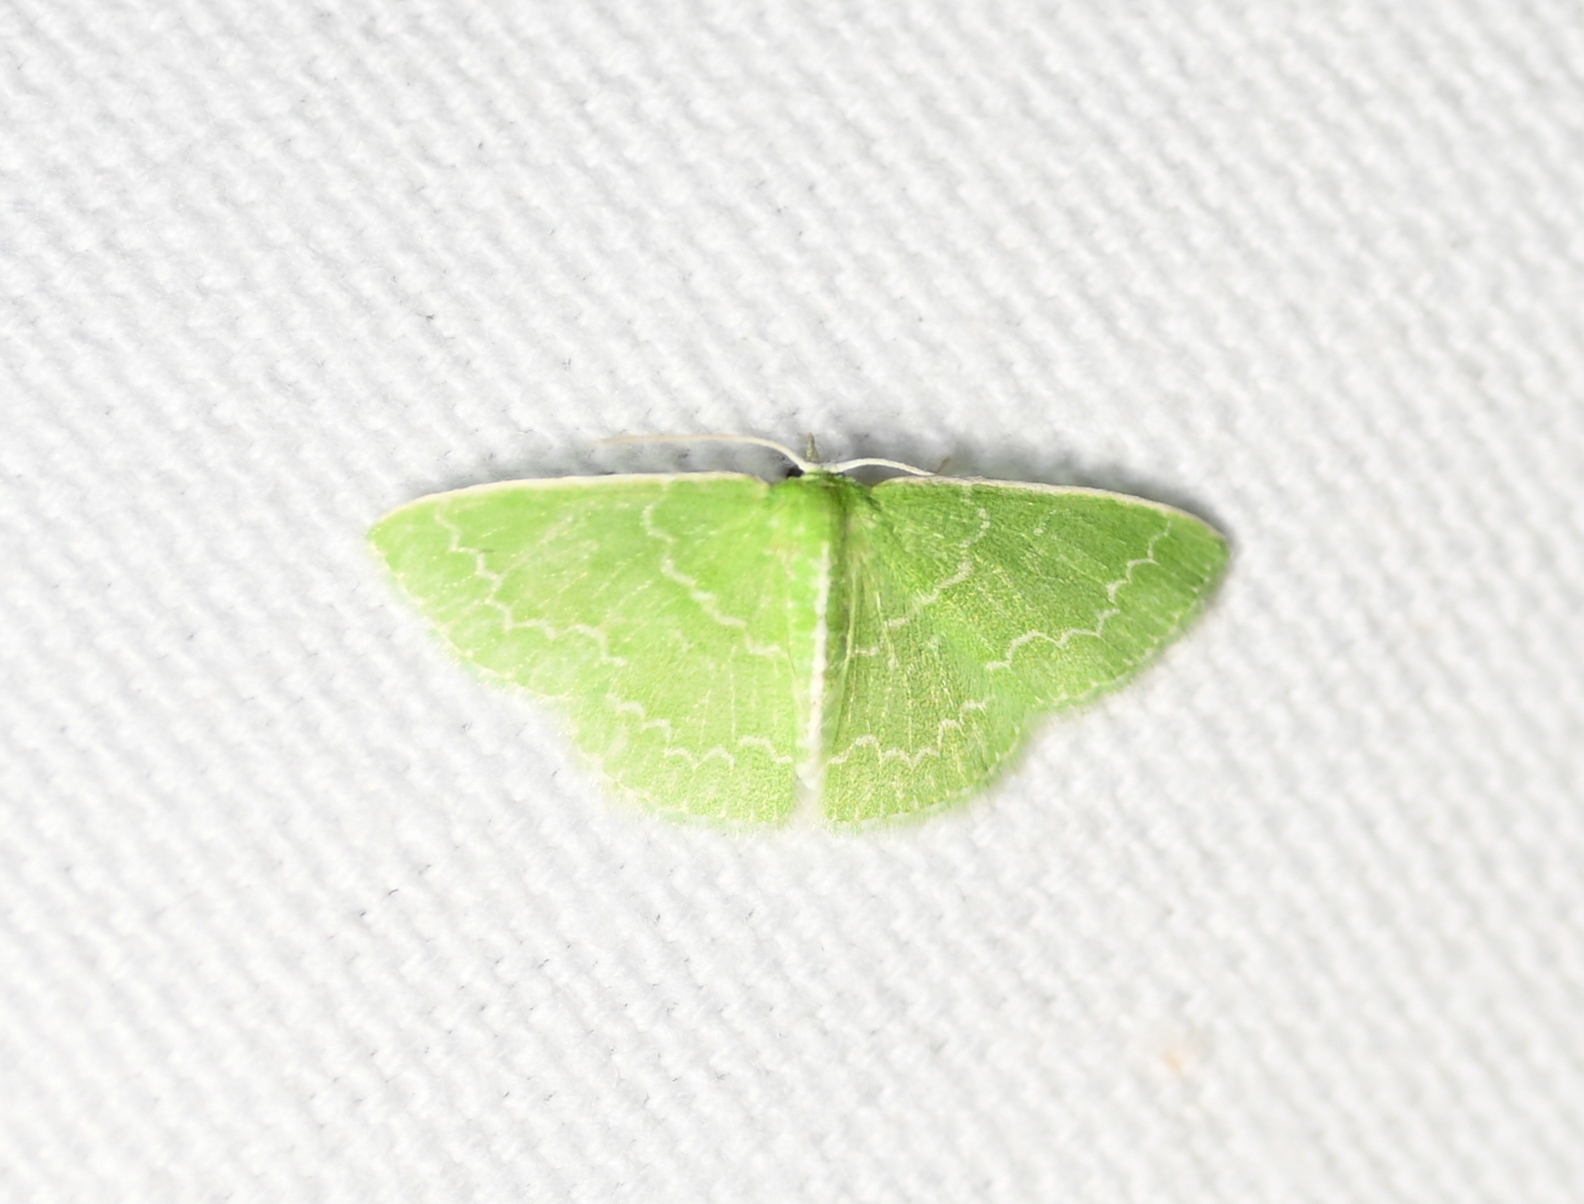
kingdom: Animalia
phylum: Arthropoda
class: Insecta
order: Lepidoptera
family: Geometridae
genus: Synchlora
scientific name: Synchlora frondaria
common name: Southern emerald
